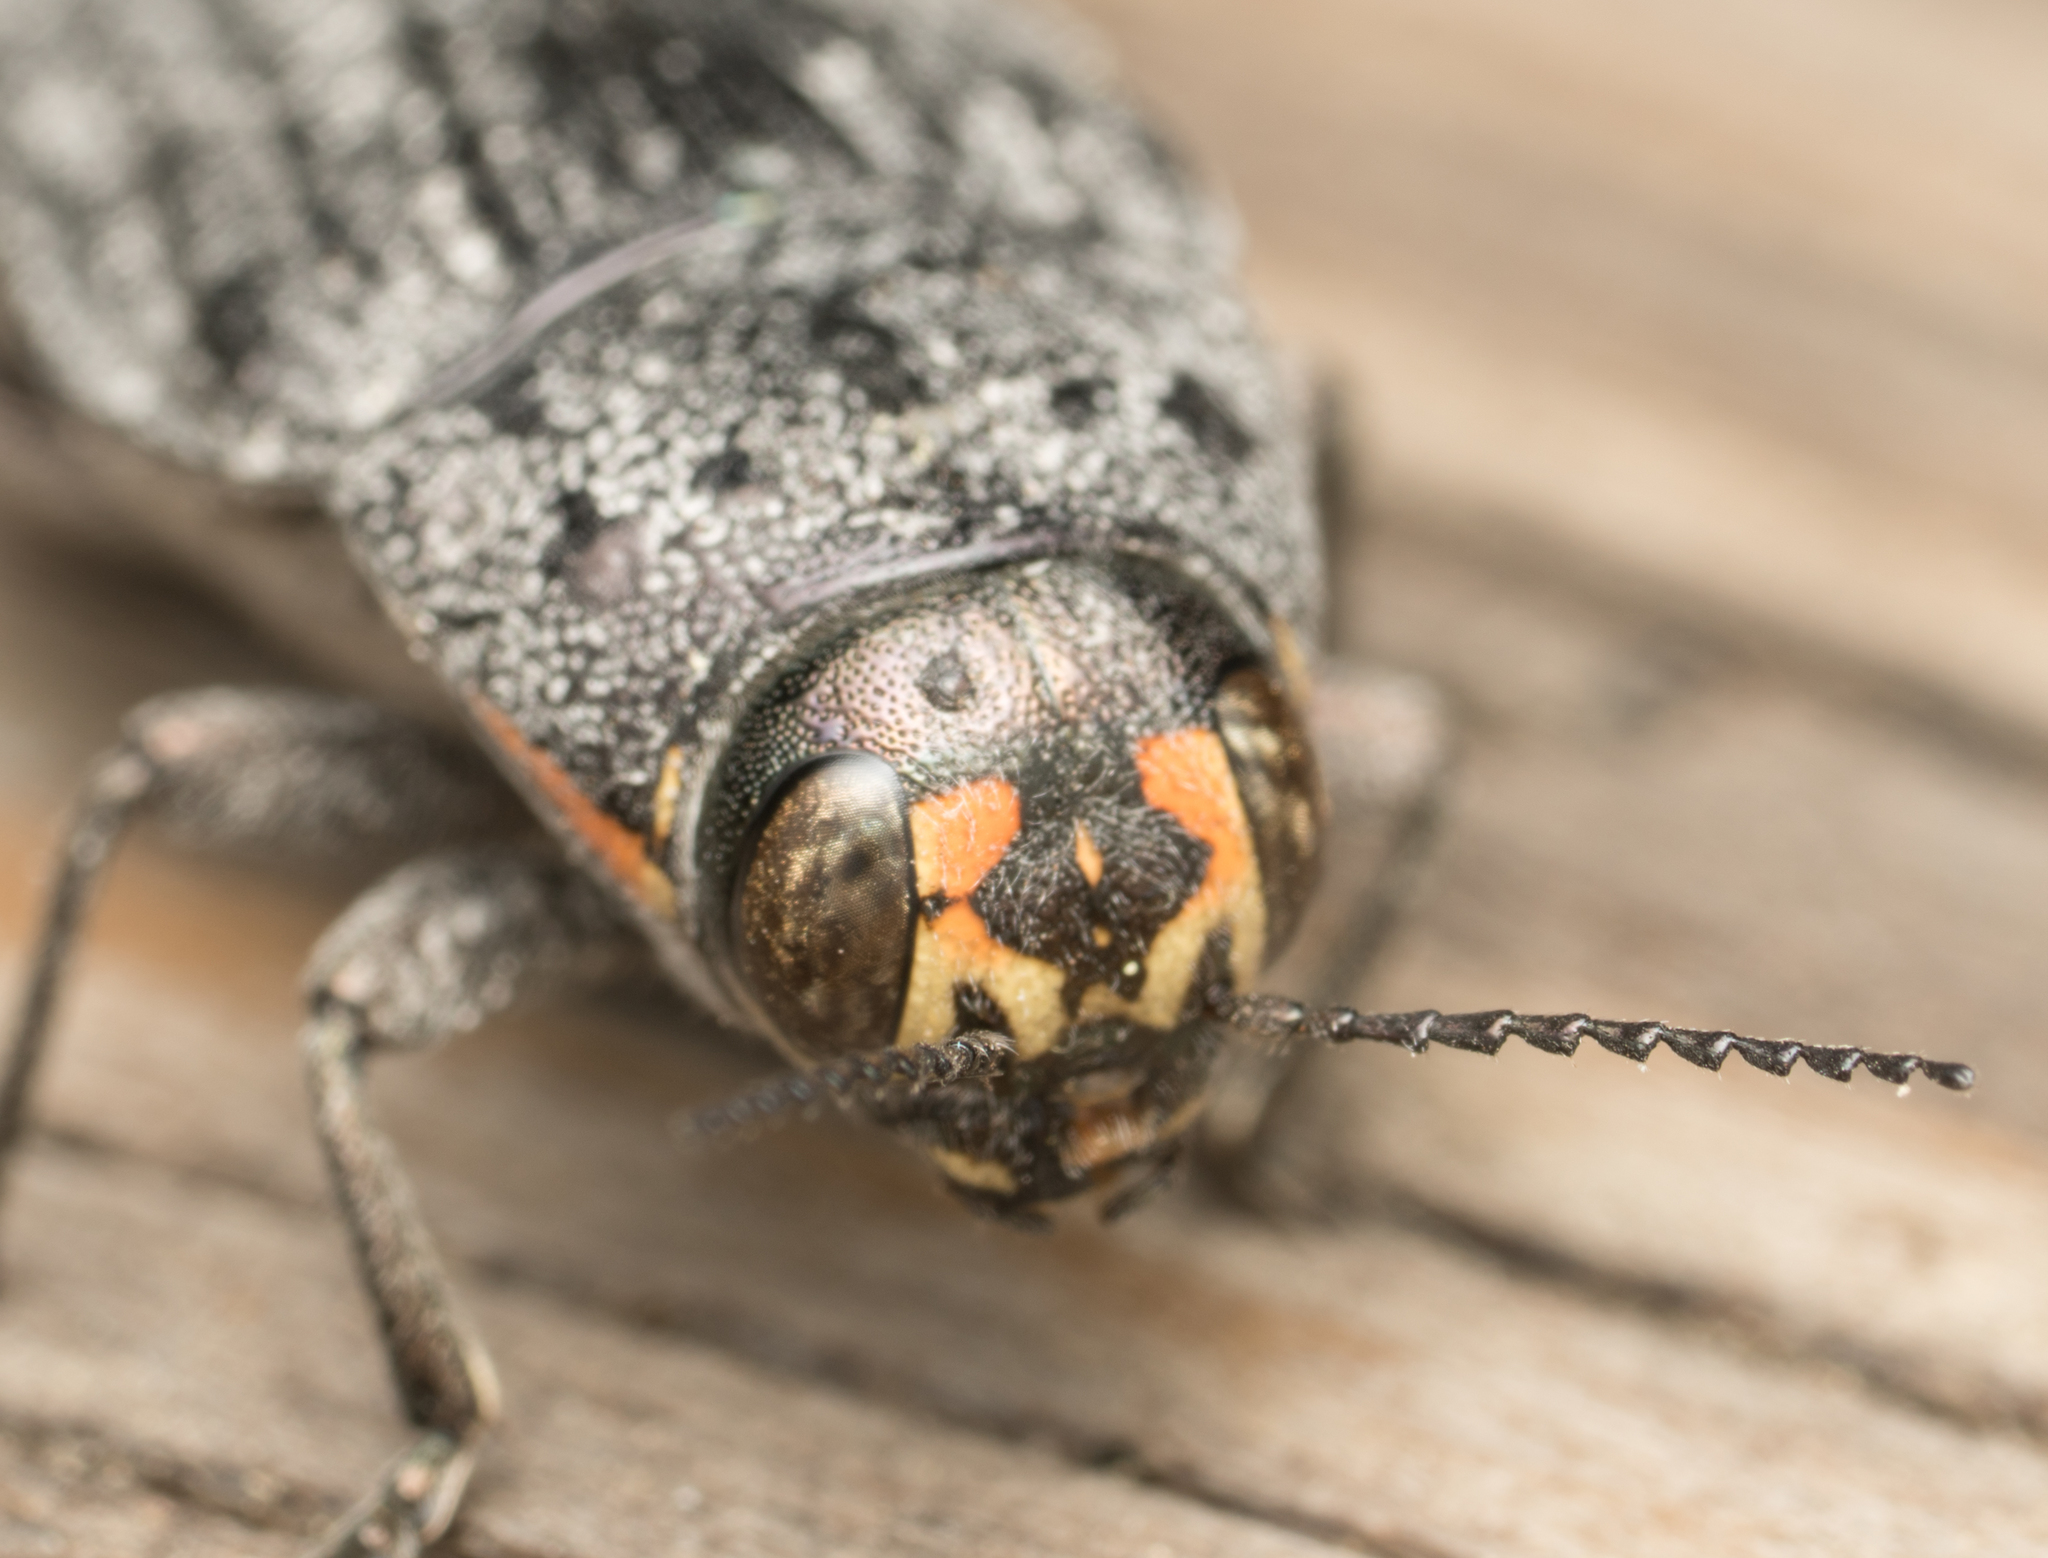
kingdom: Animalia
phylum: Arthropoda
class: Insecta
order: Coleoptera
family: Buprestidae
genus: Buprestis
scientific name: Buprestis lyrata
